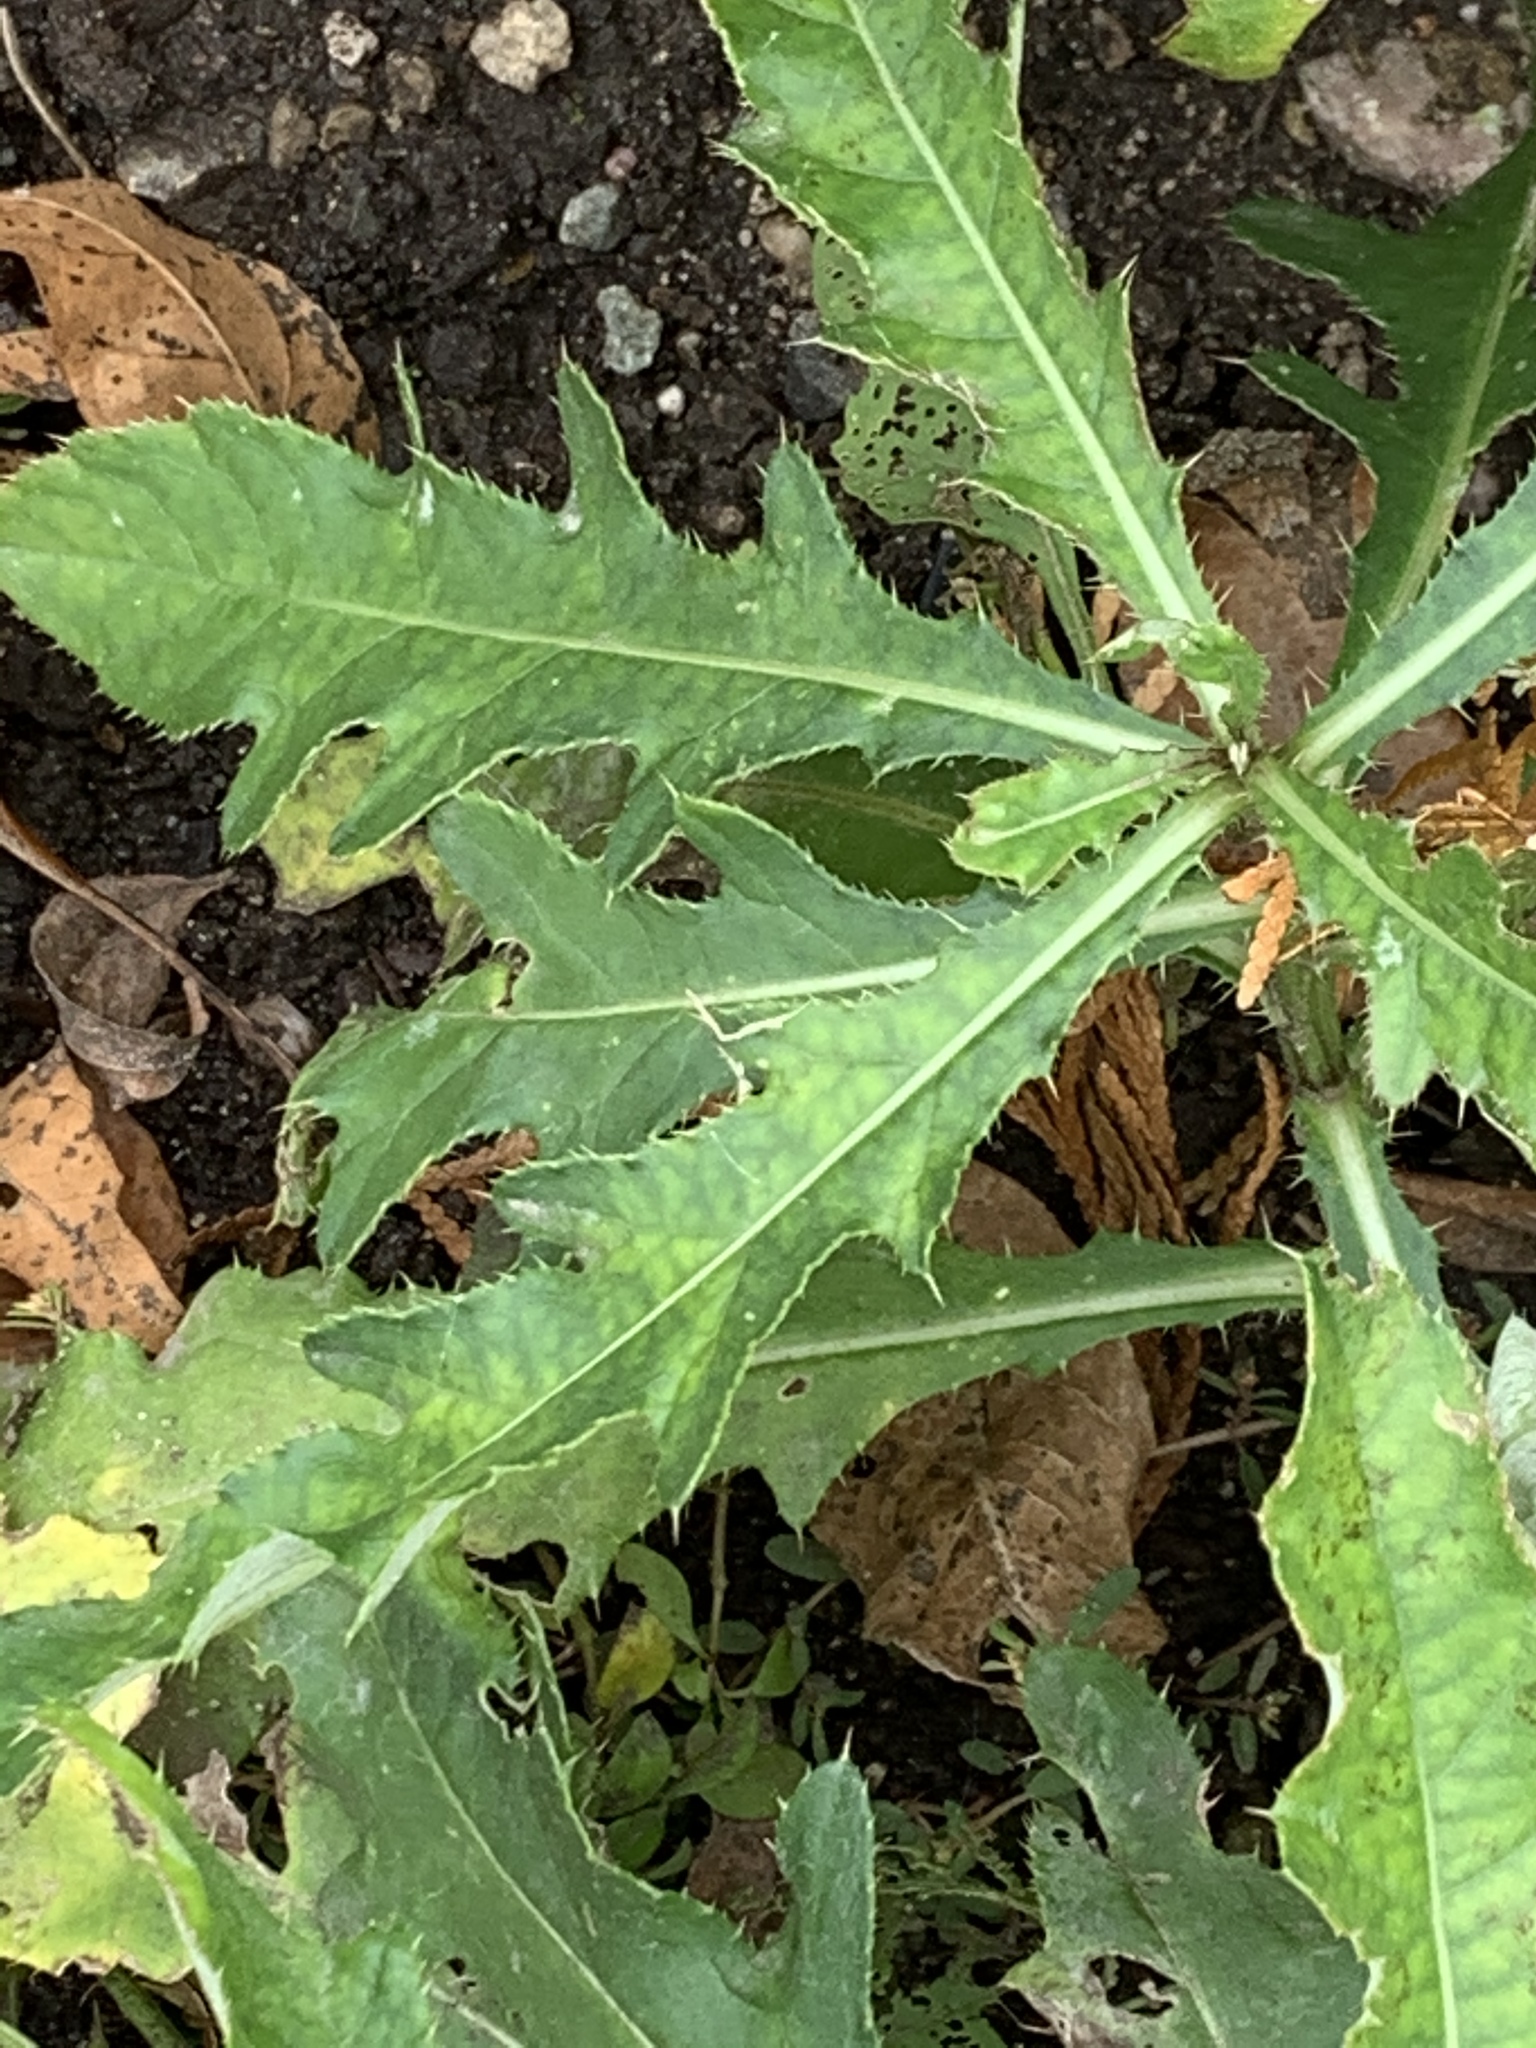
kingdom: Plantae
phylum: Tracheophyta
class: Magnoliopsida
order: Asterales
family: Asteraceae
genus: Cirsium
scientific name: Cirsium arvense
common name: Creeping thistle
